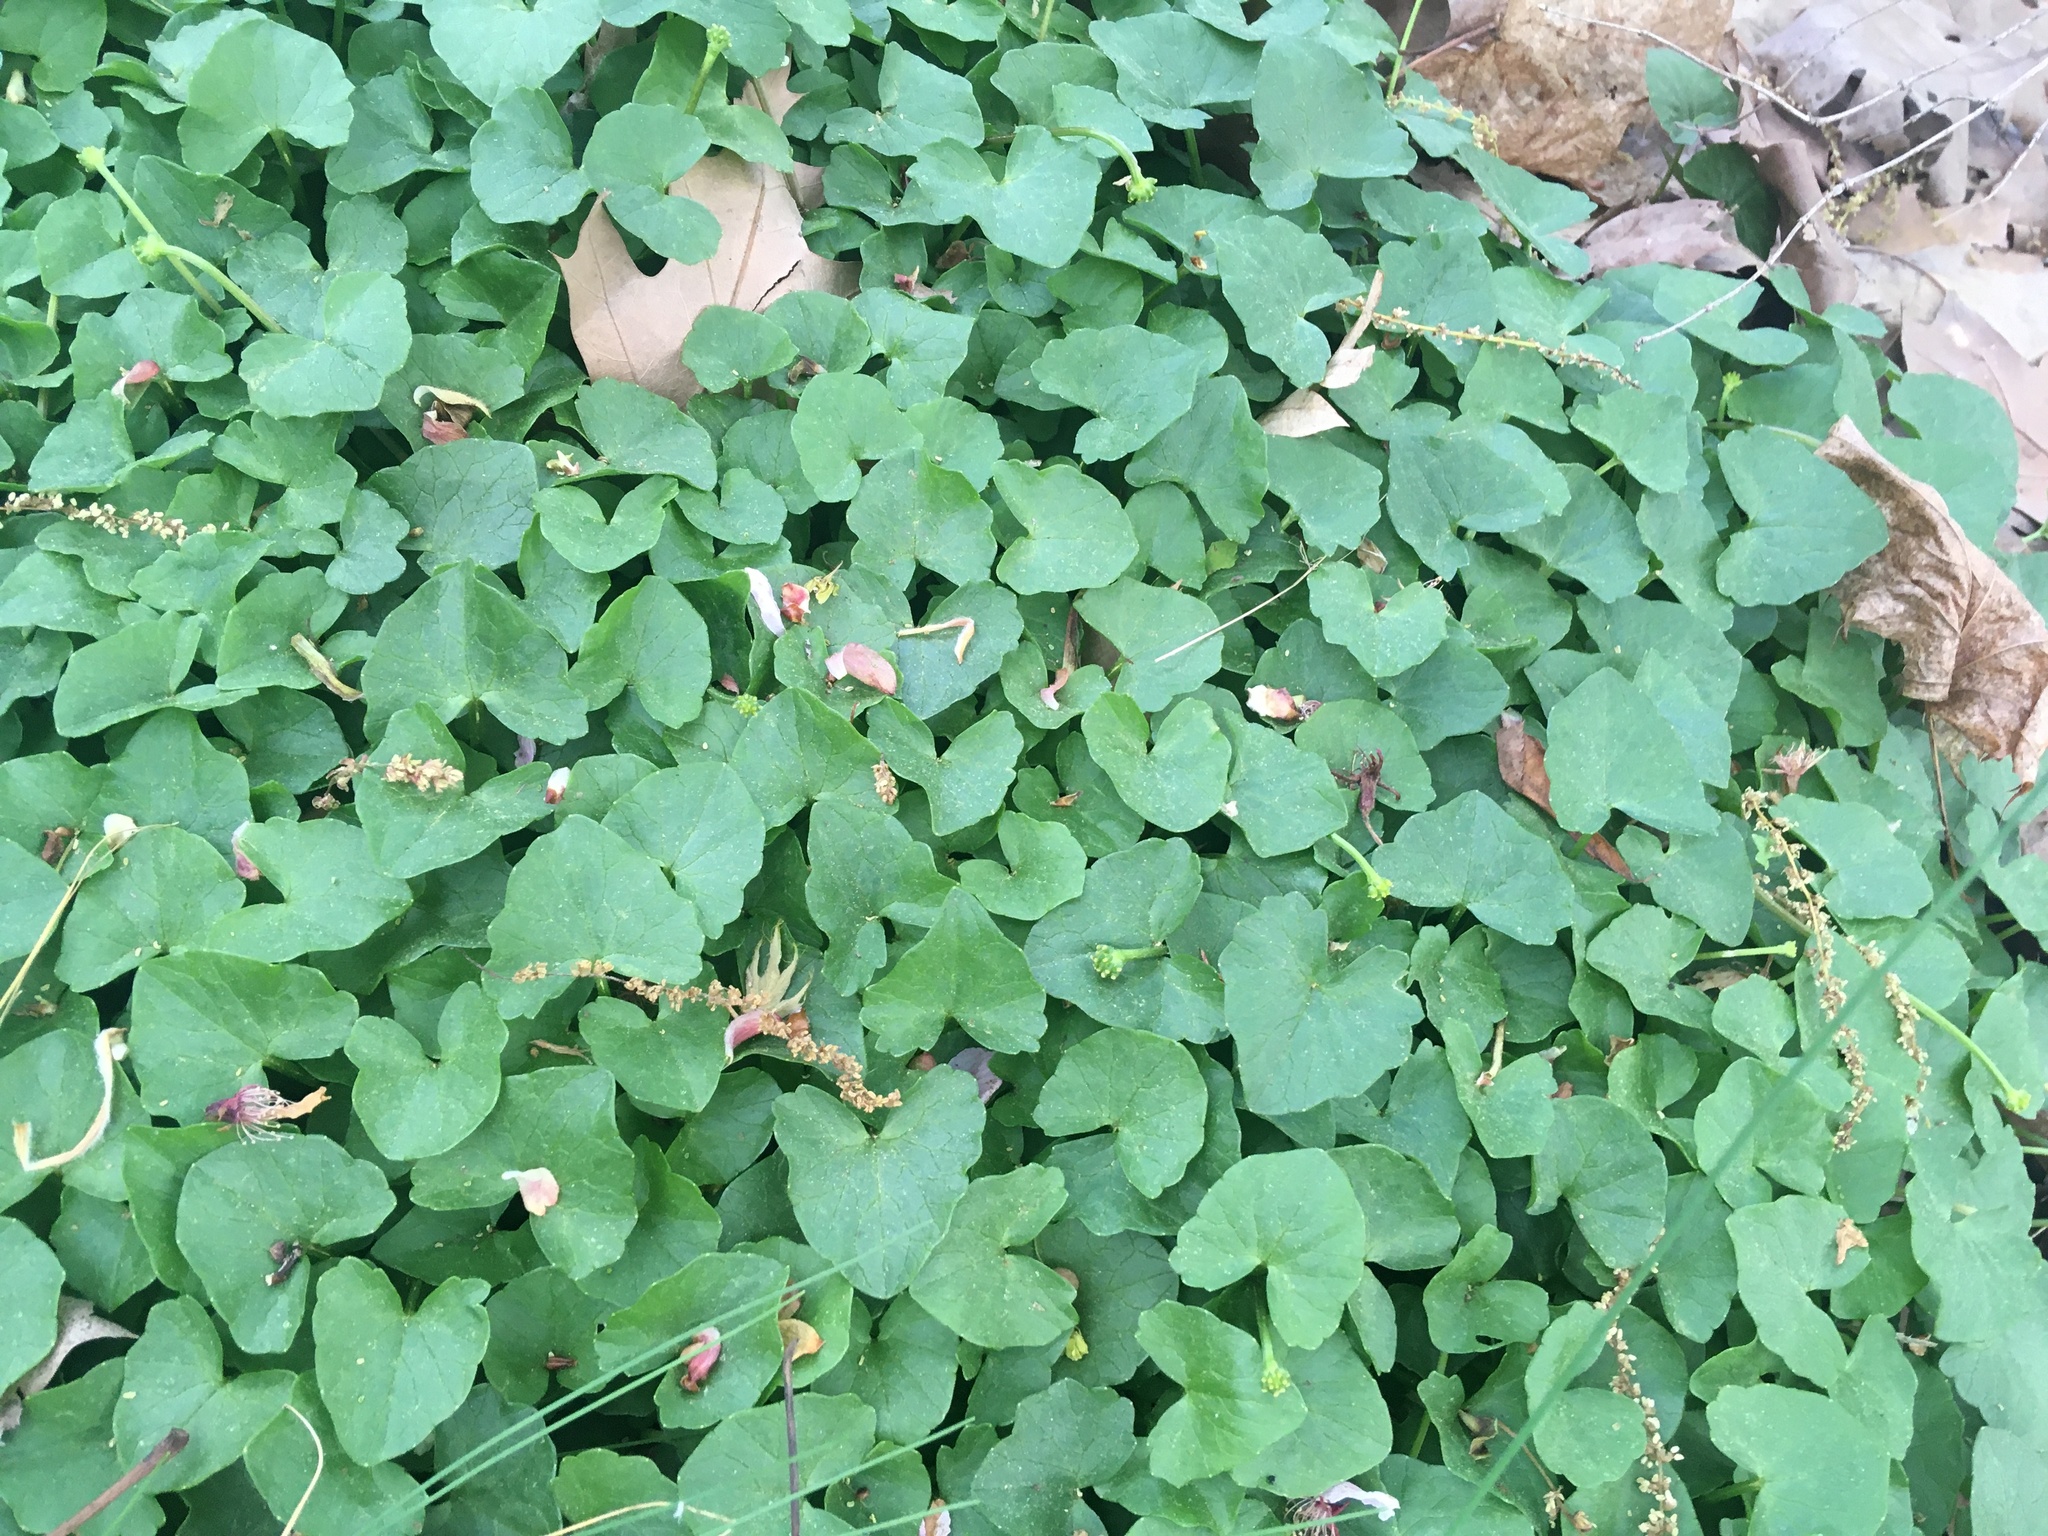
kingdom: Plantae
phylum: Tracheophyta
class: Magnoliopsida
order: Ranunculales
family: Ranunculaceae
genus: Ficaria
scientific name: Ficaria verna
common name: Lesser celandine
